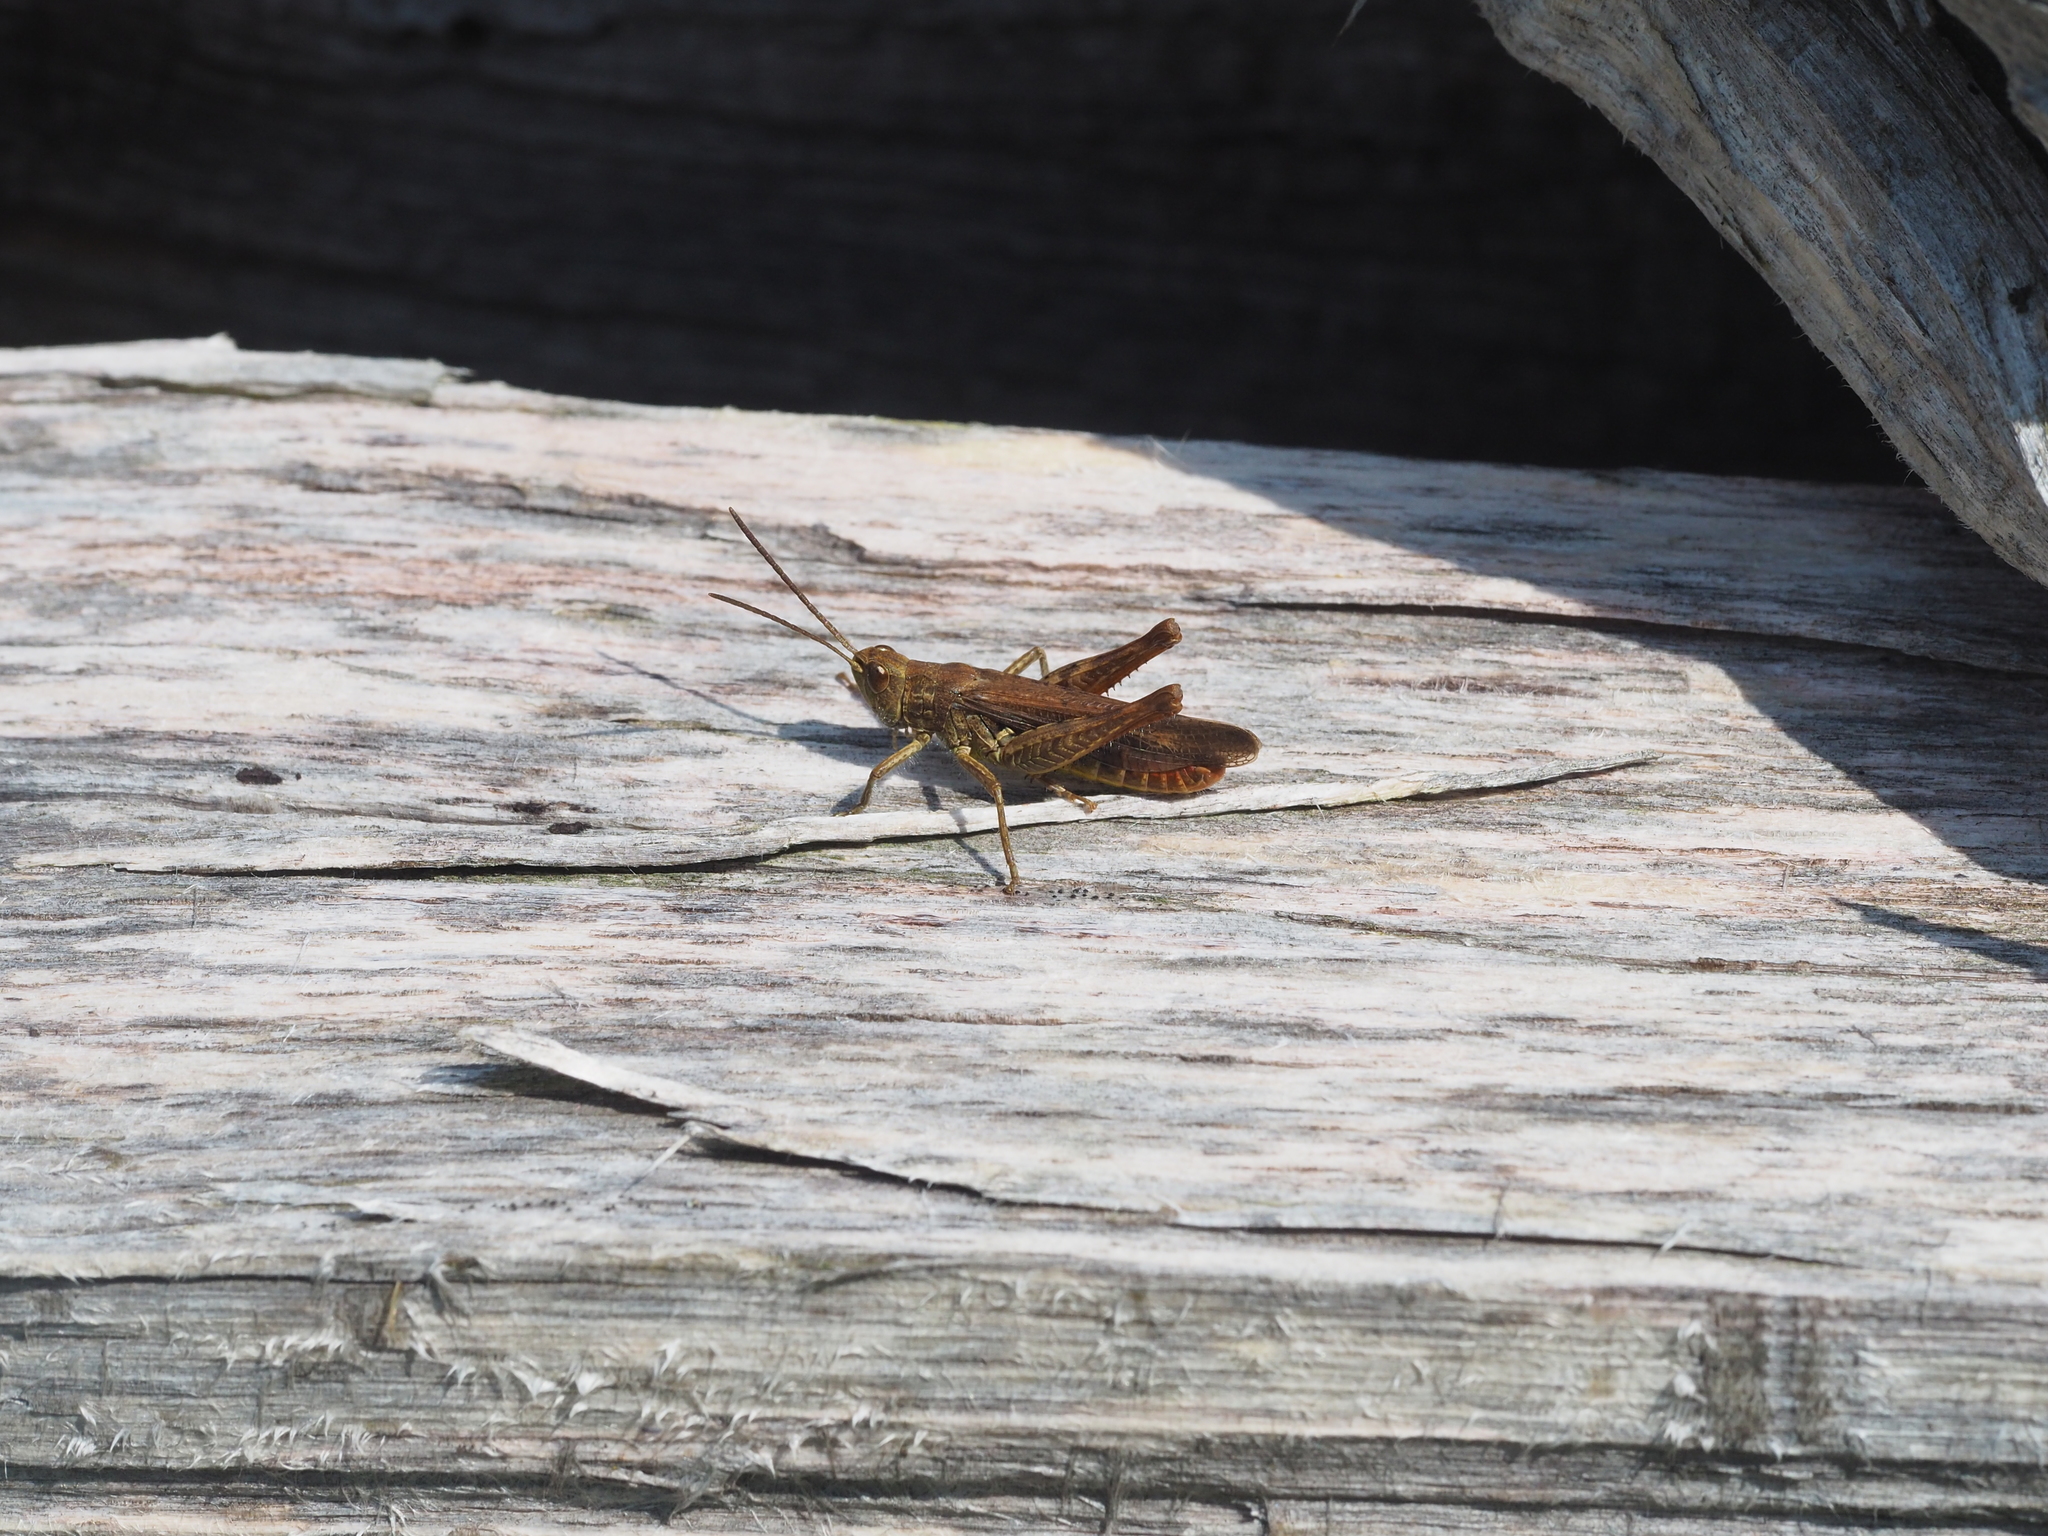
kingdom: Animalia
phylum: Arthropoda
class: Insecta
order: Orthoptera
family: Acrididae
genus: Chorthippus
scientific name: Chorthippus biguttulus
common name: Bow-winged grasshopper
